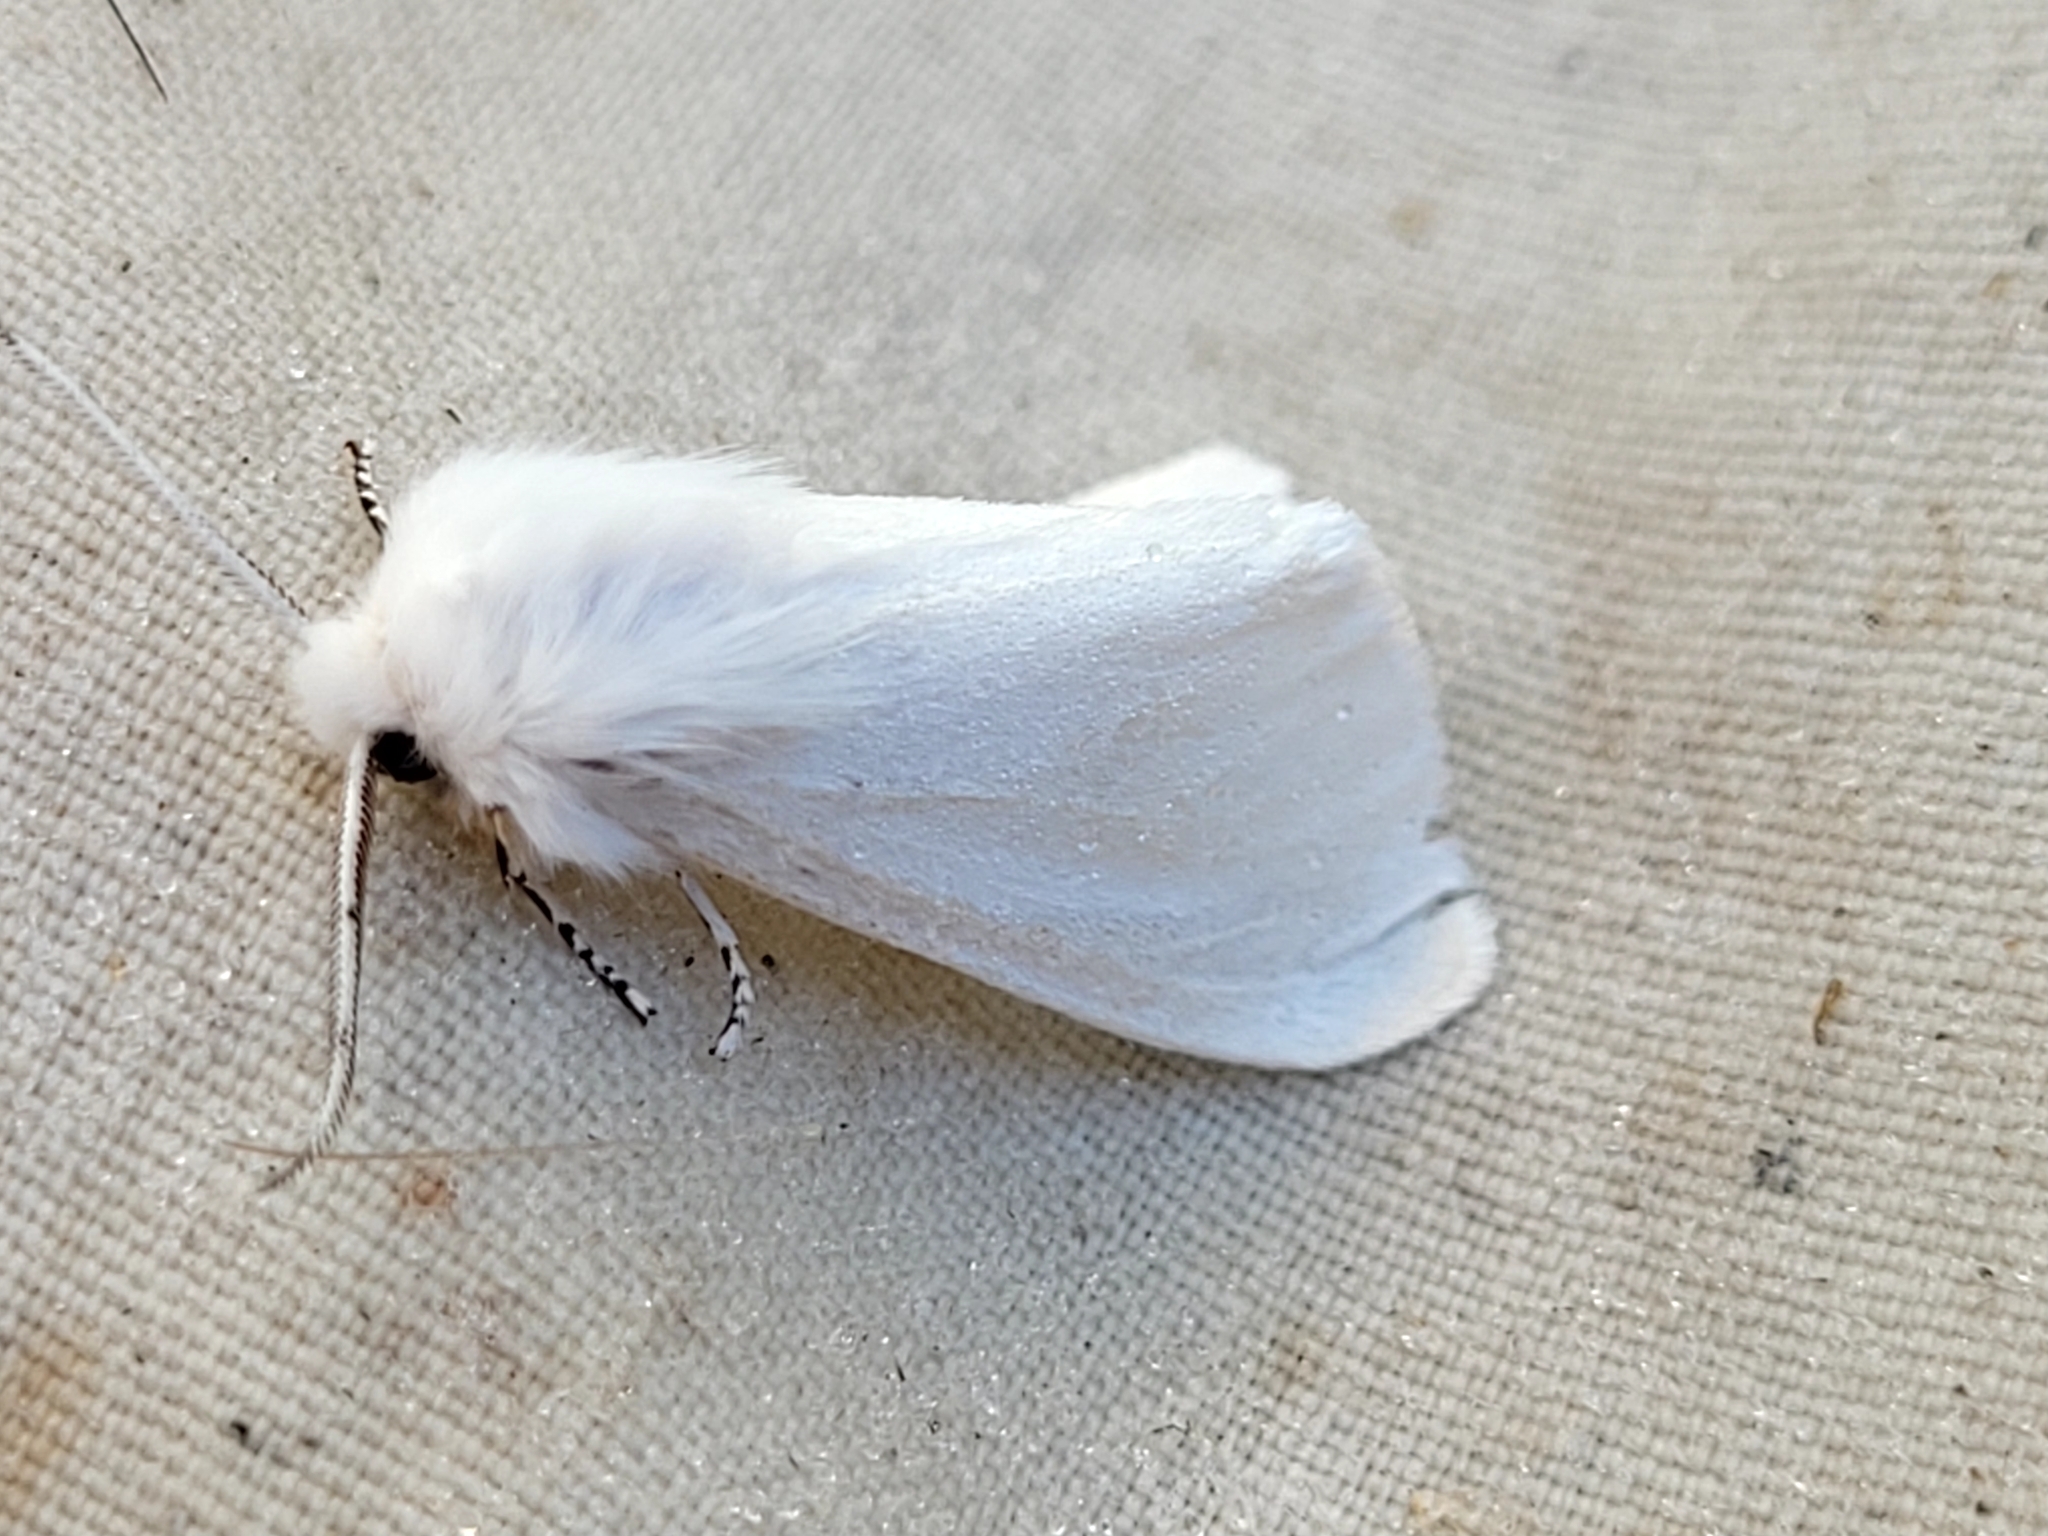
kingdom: Animalia
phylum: Arthropoda
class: Insecta
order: Lepidoptera
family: Erebidae
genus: Hyphantria
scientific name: Hyphantria cunea
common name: American white moth
